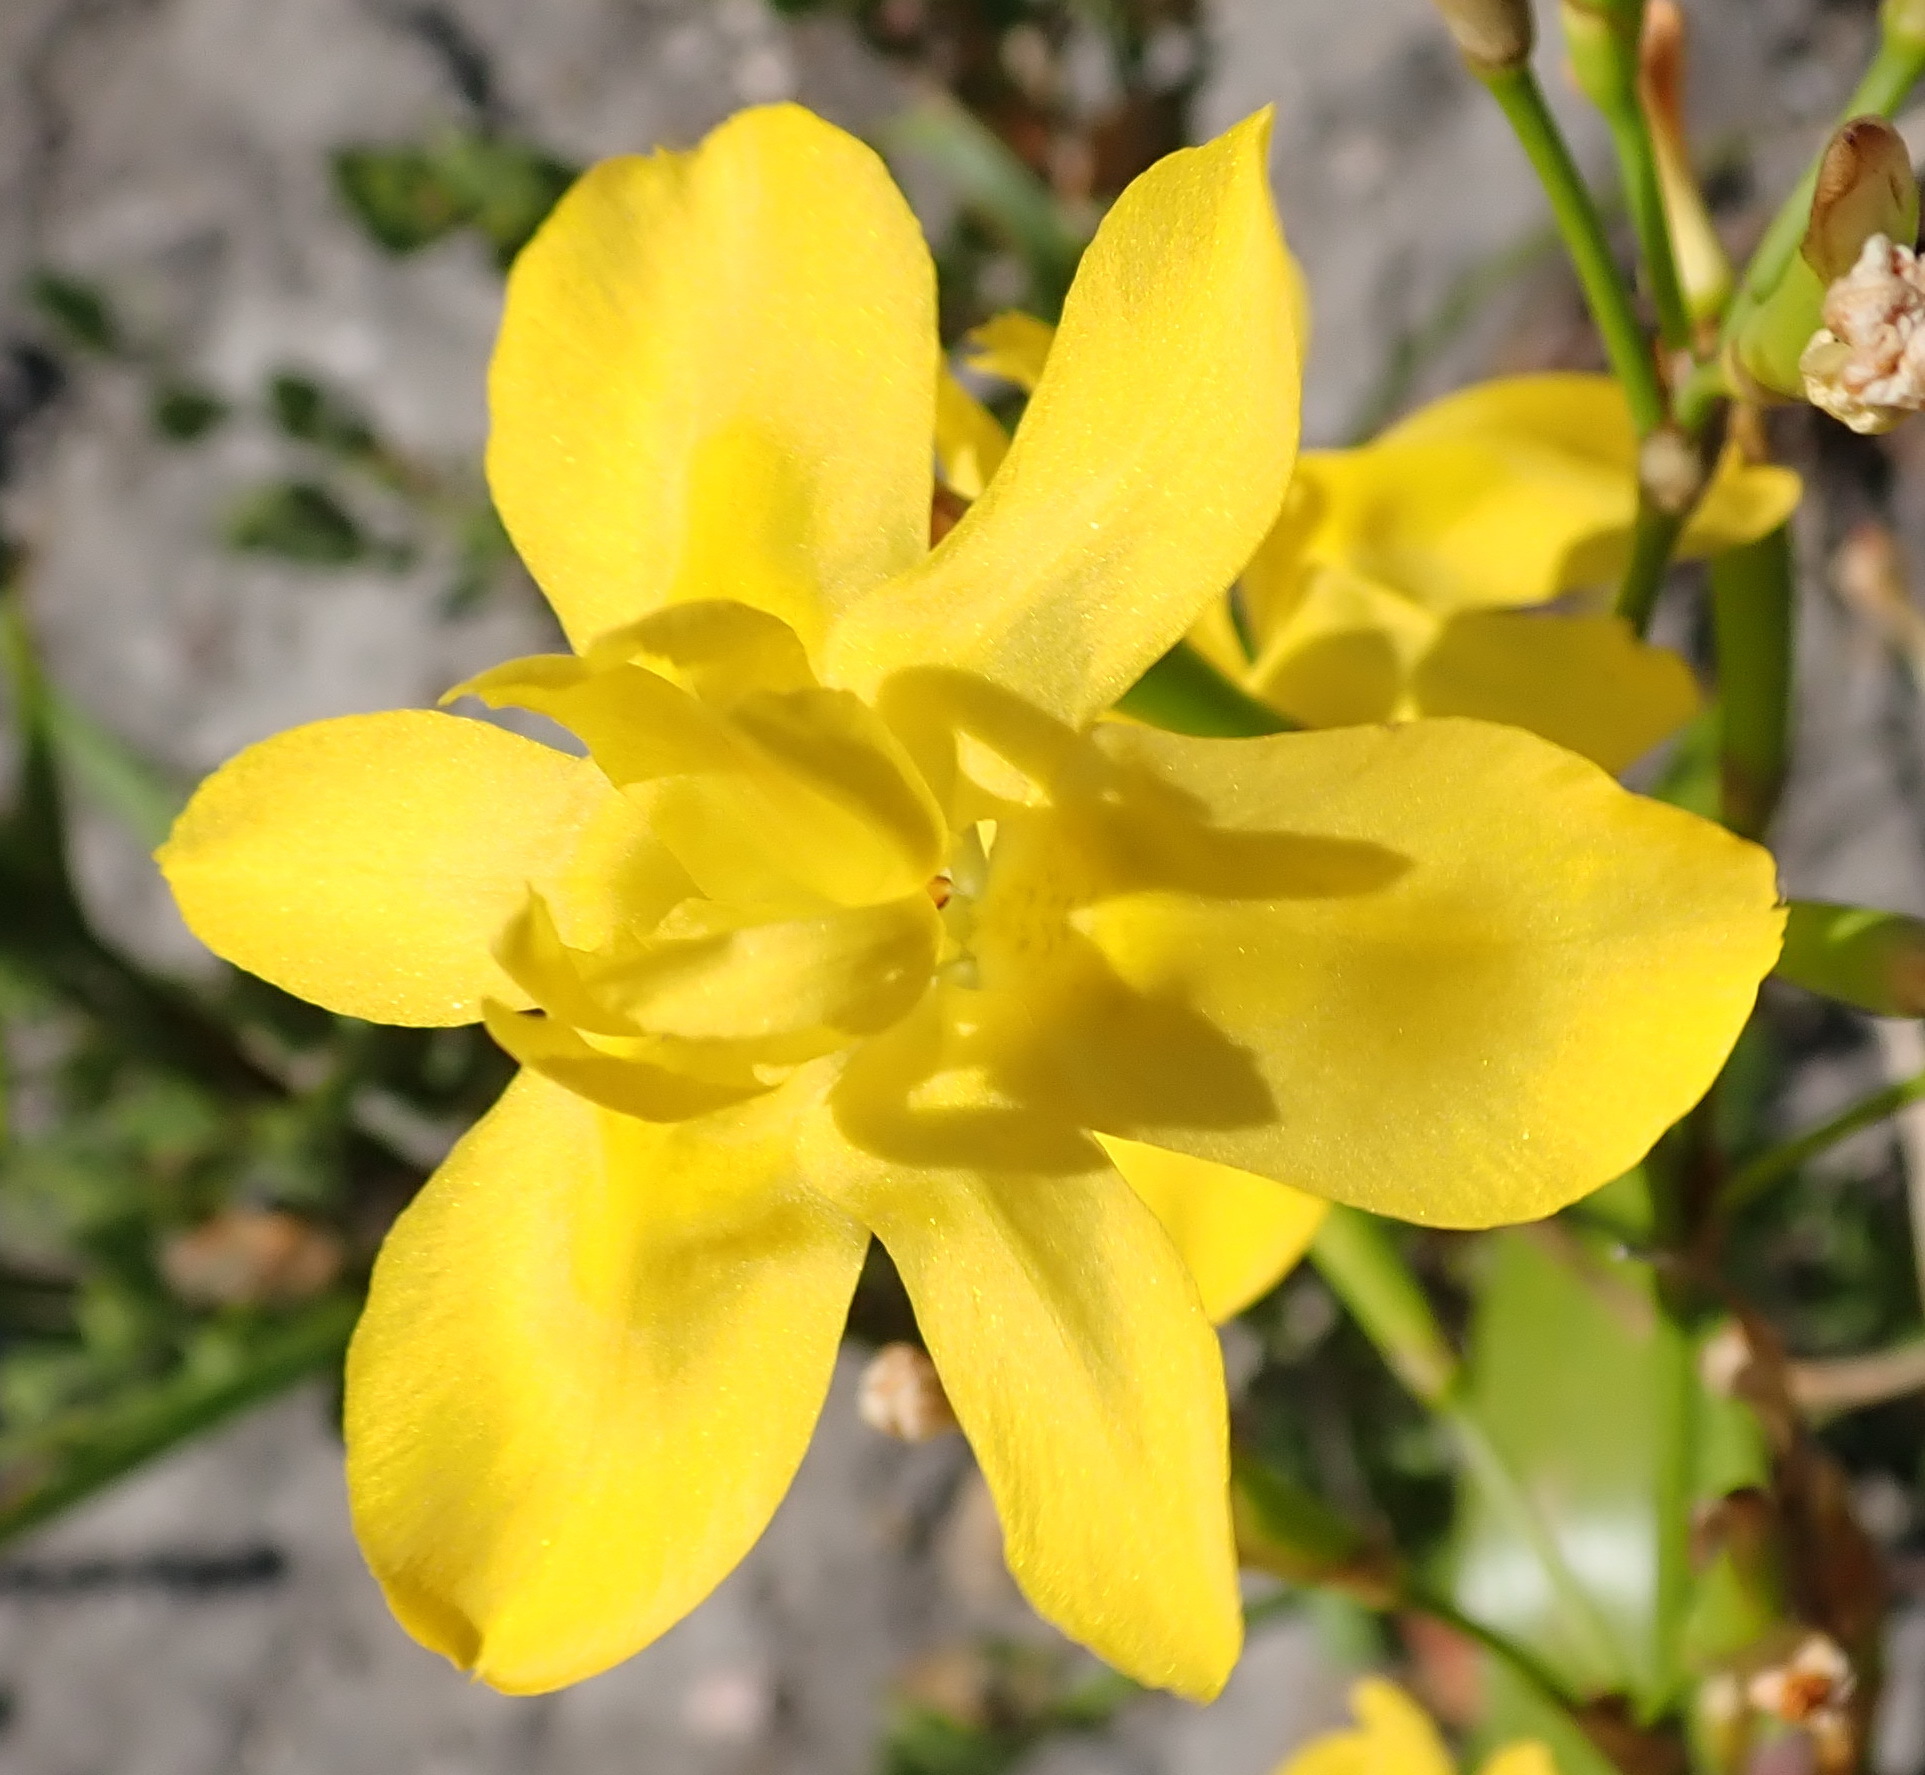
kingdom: Plantae
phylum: Tracheophyta
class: Liliopsida
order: Asparagales
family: Iridaceae
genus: Moraea
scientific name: Moraea ramosissima
